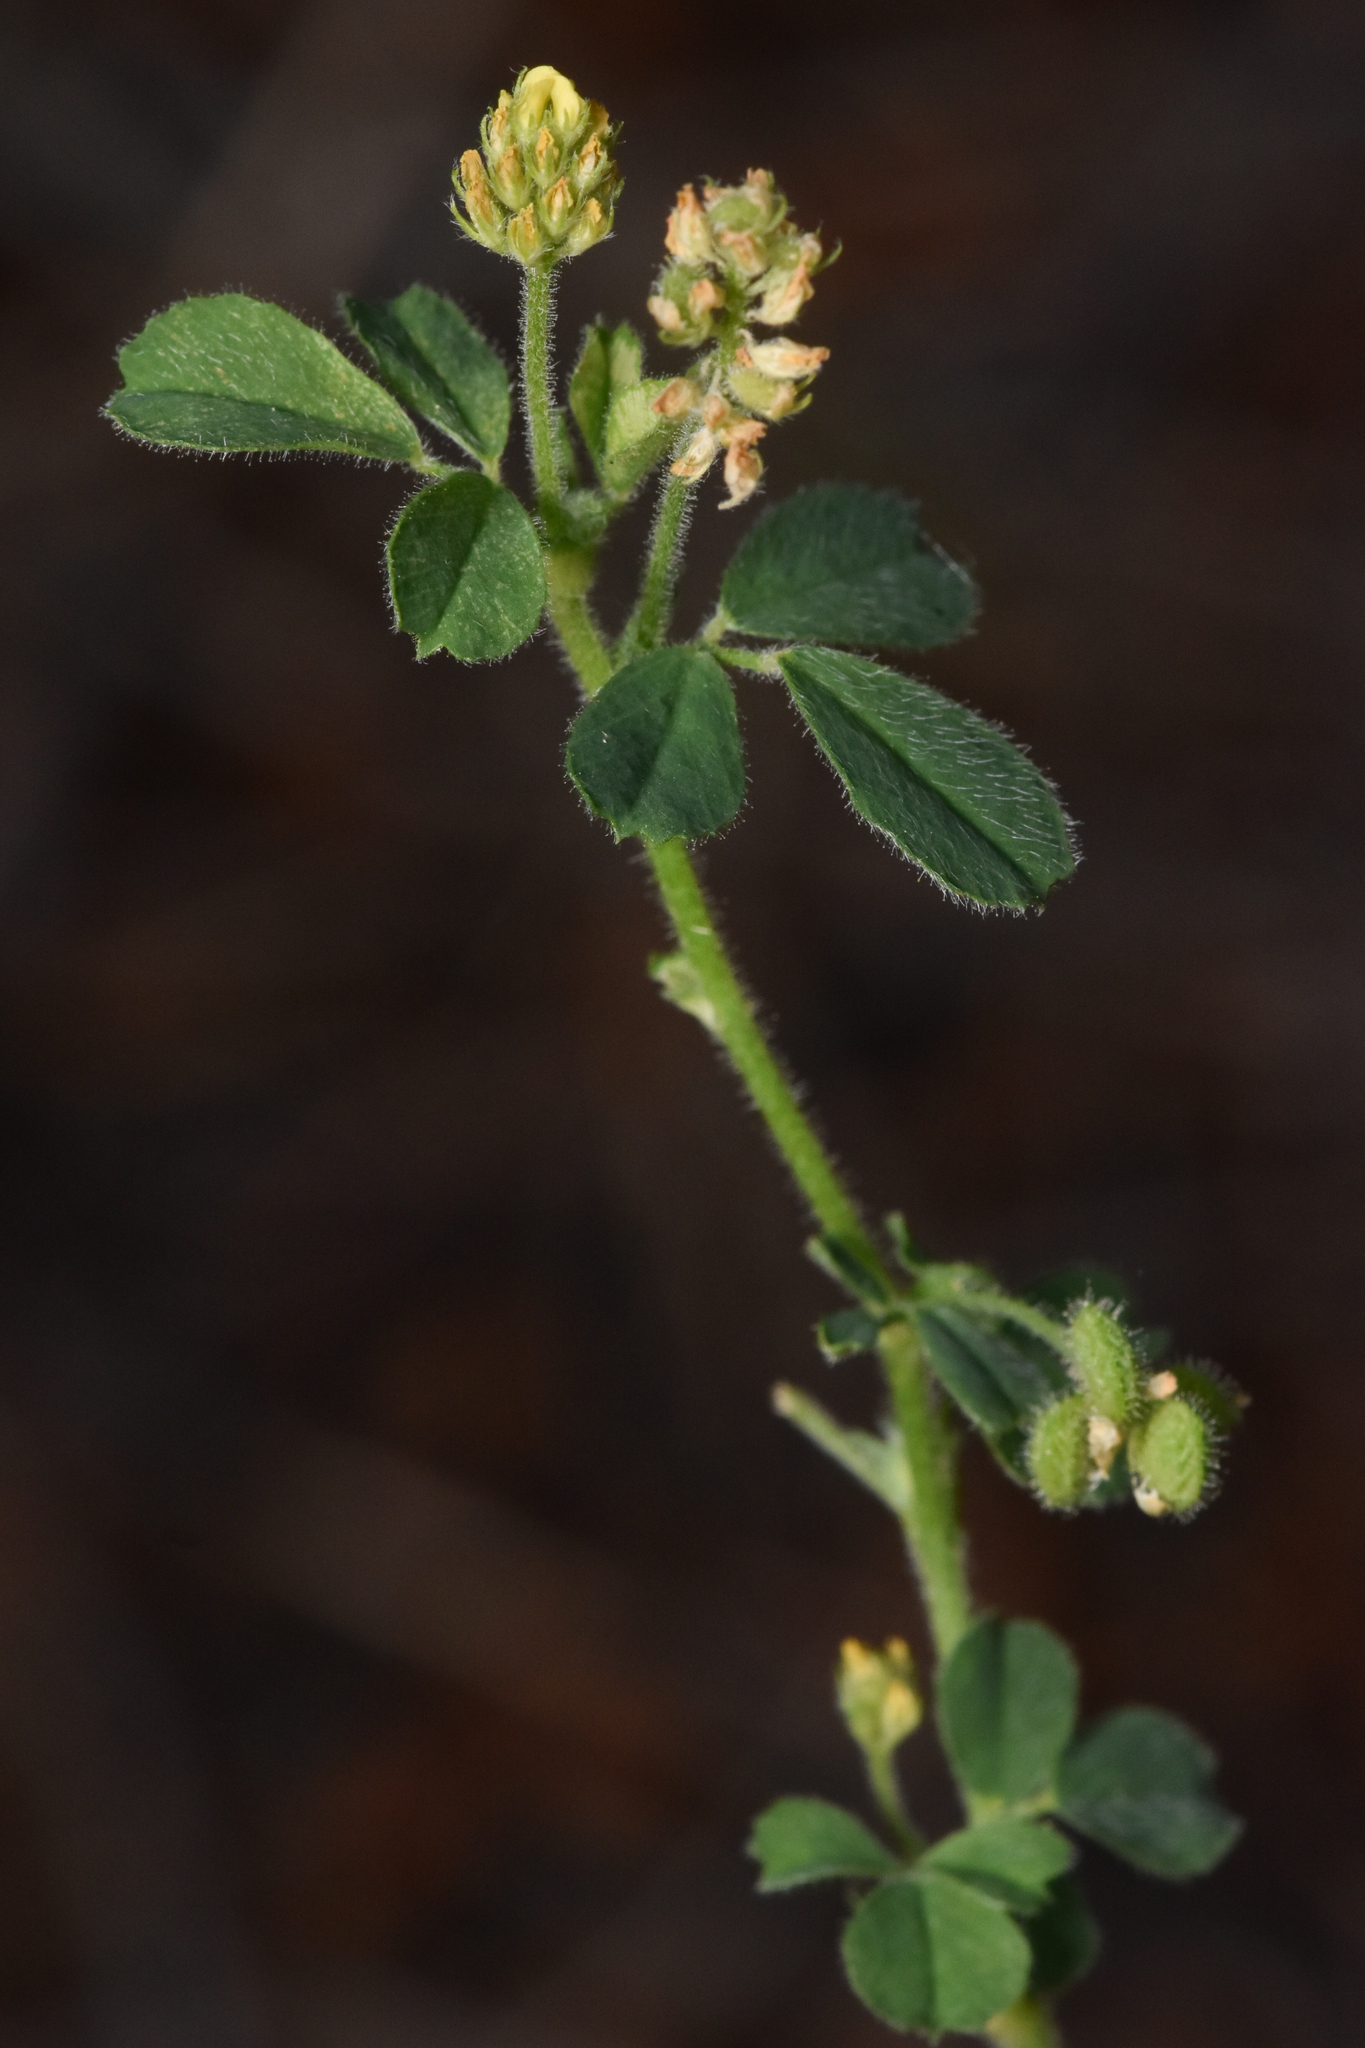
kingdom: Plantae
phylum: Tracheophyta
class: Magnoliopsida
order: Fabales
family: Fabaceae
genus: Medicago
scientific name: Medicago lupulina
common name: Black medick
